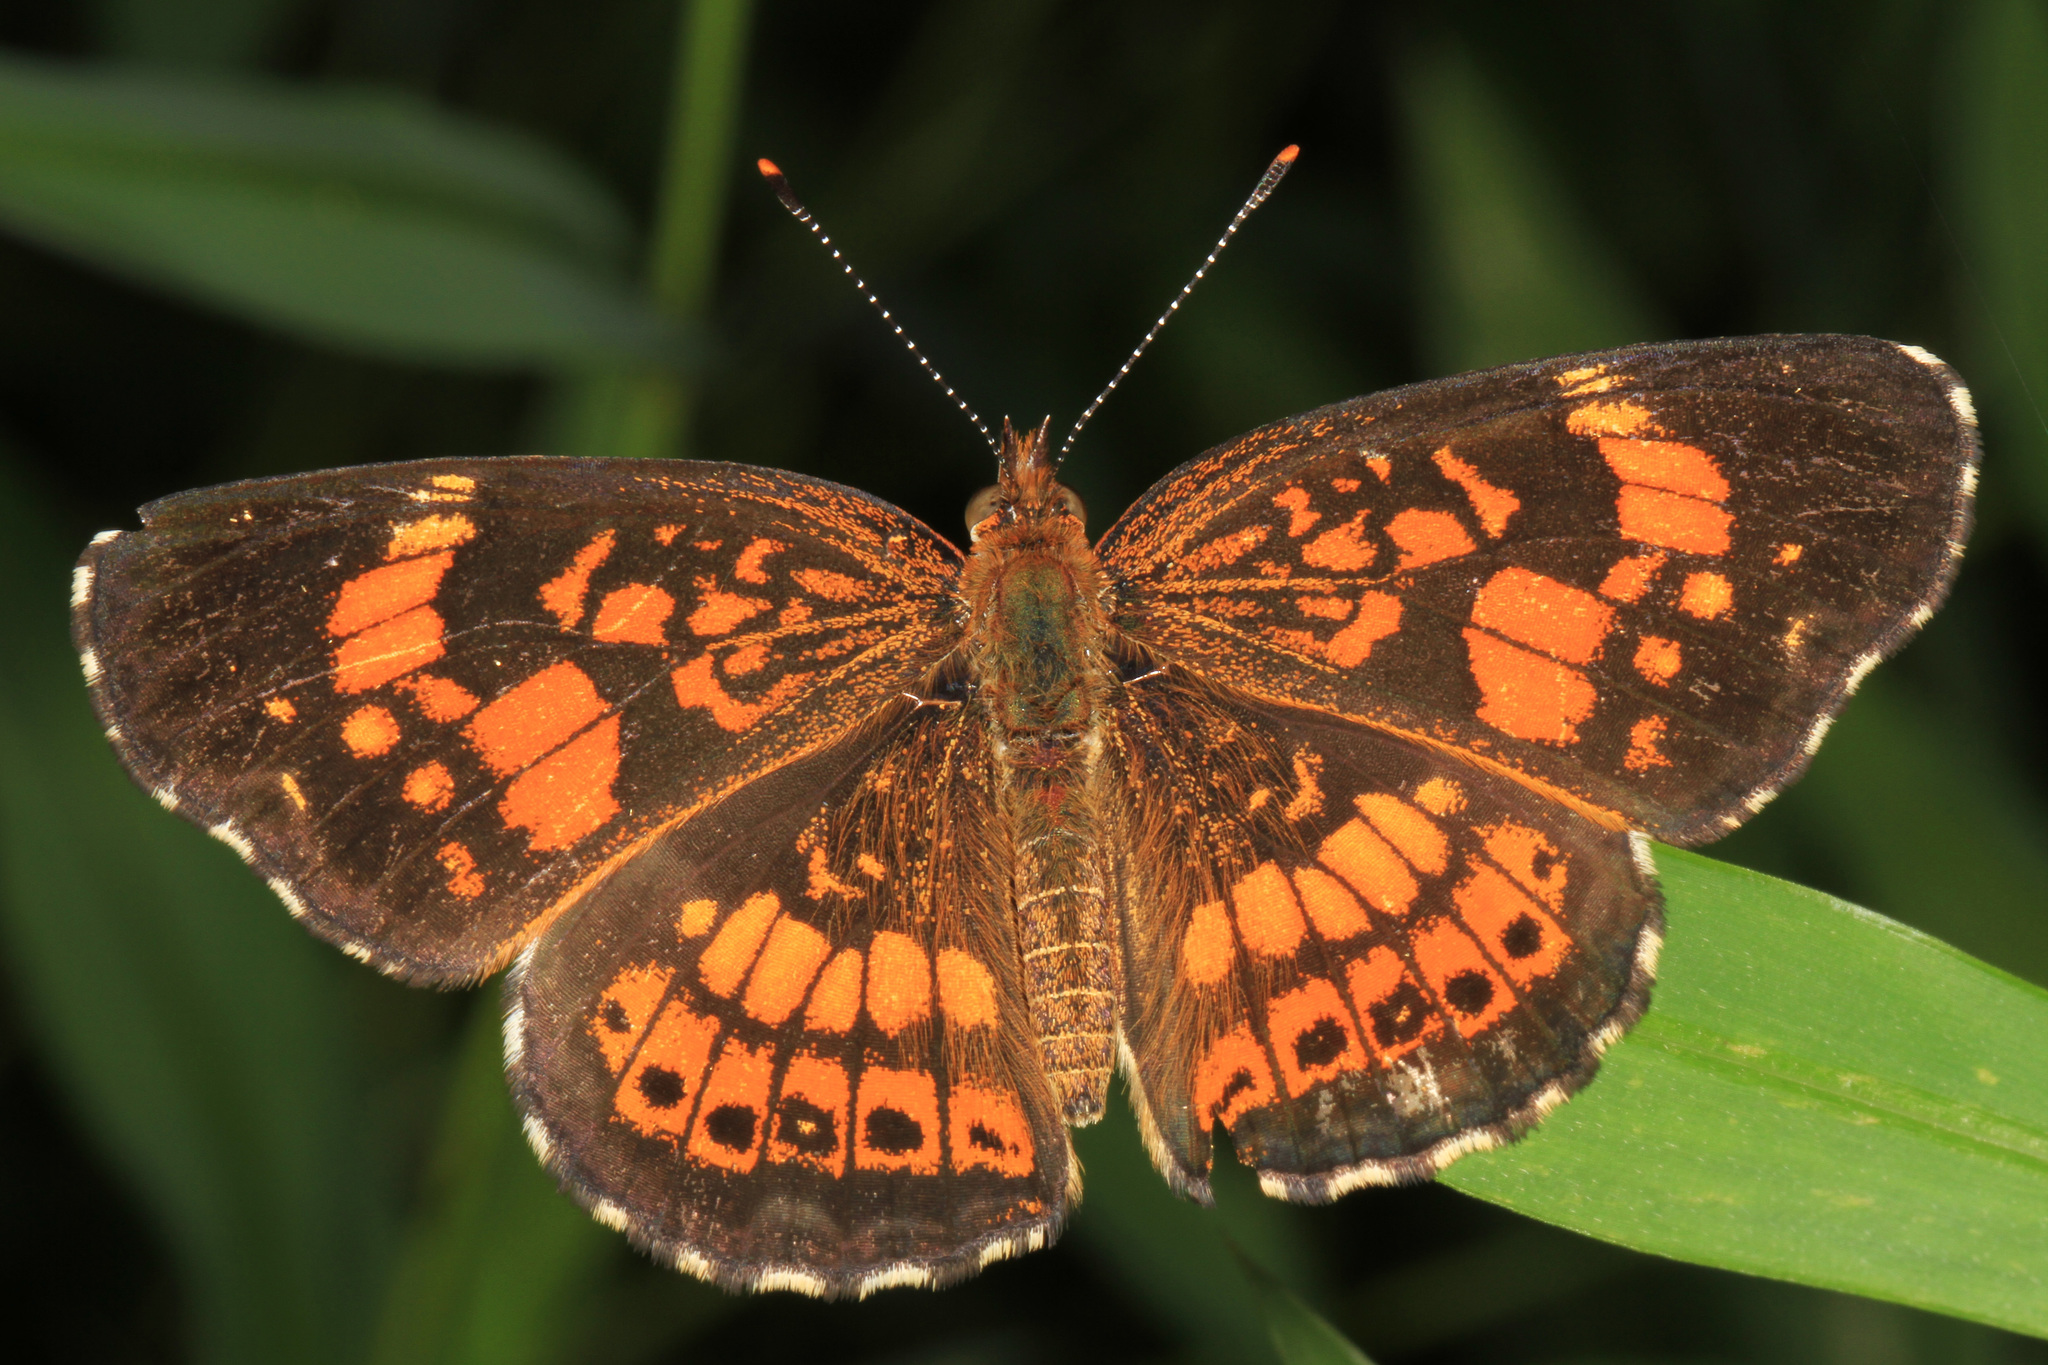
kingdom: Animalia
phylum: Arthropoda
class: Insecta
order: Lepidoptera
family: Nymphalidae
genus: Chlosyne
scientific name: Chlosyne nycteis
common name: Silvery checkerspot
